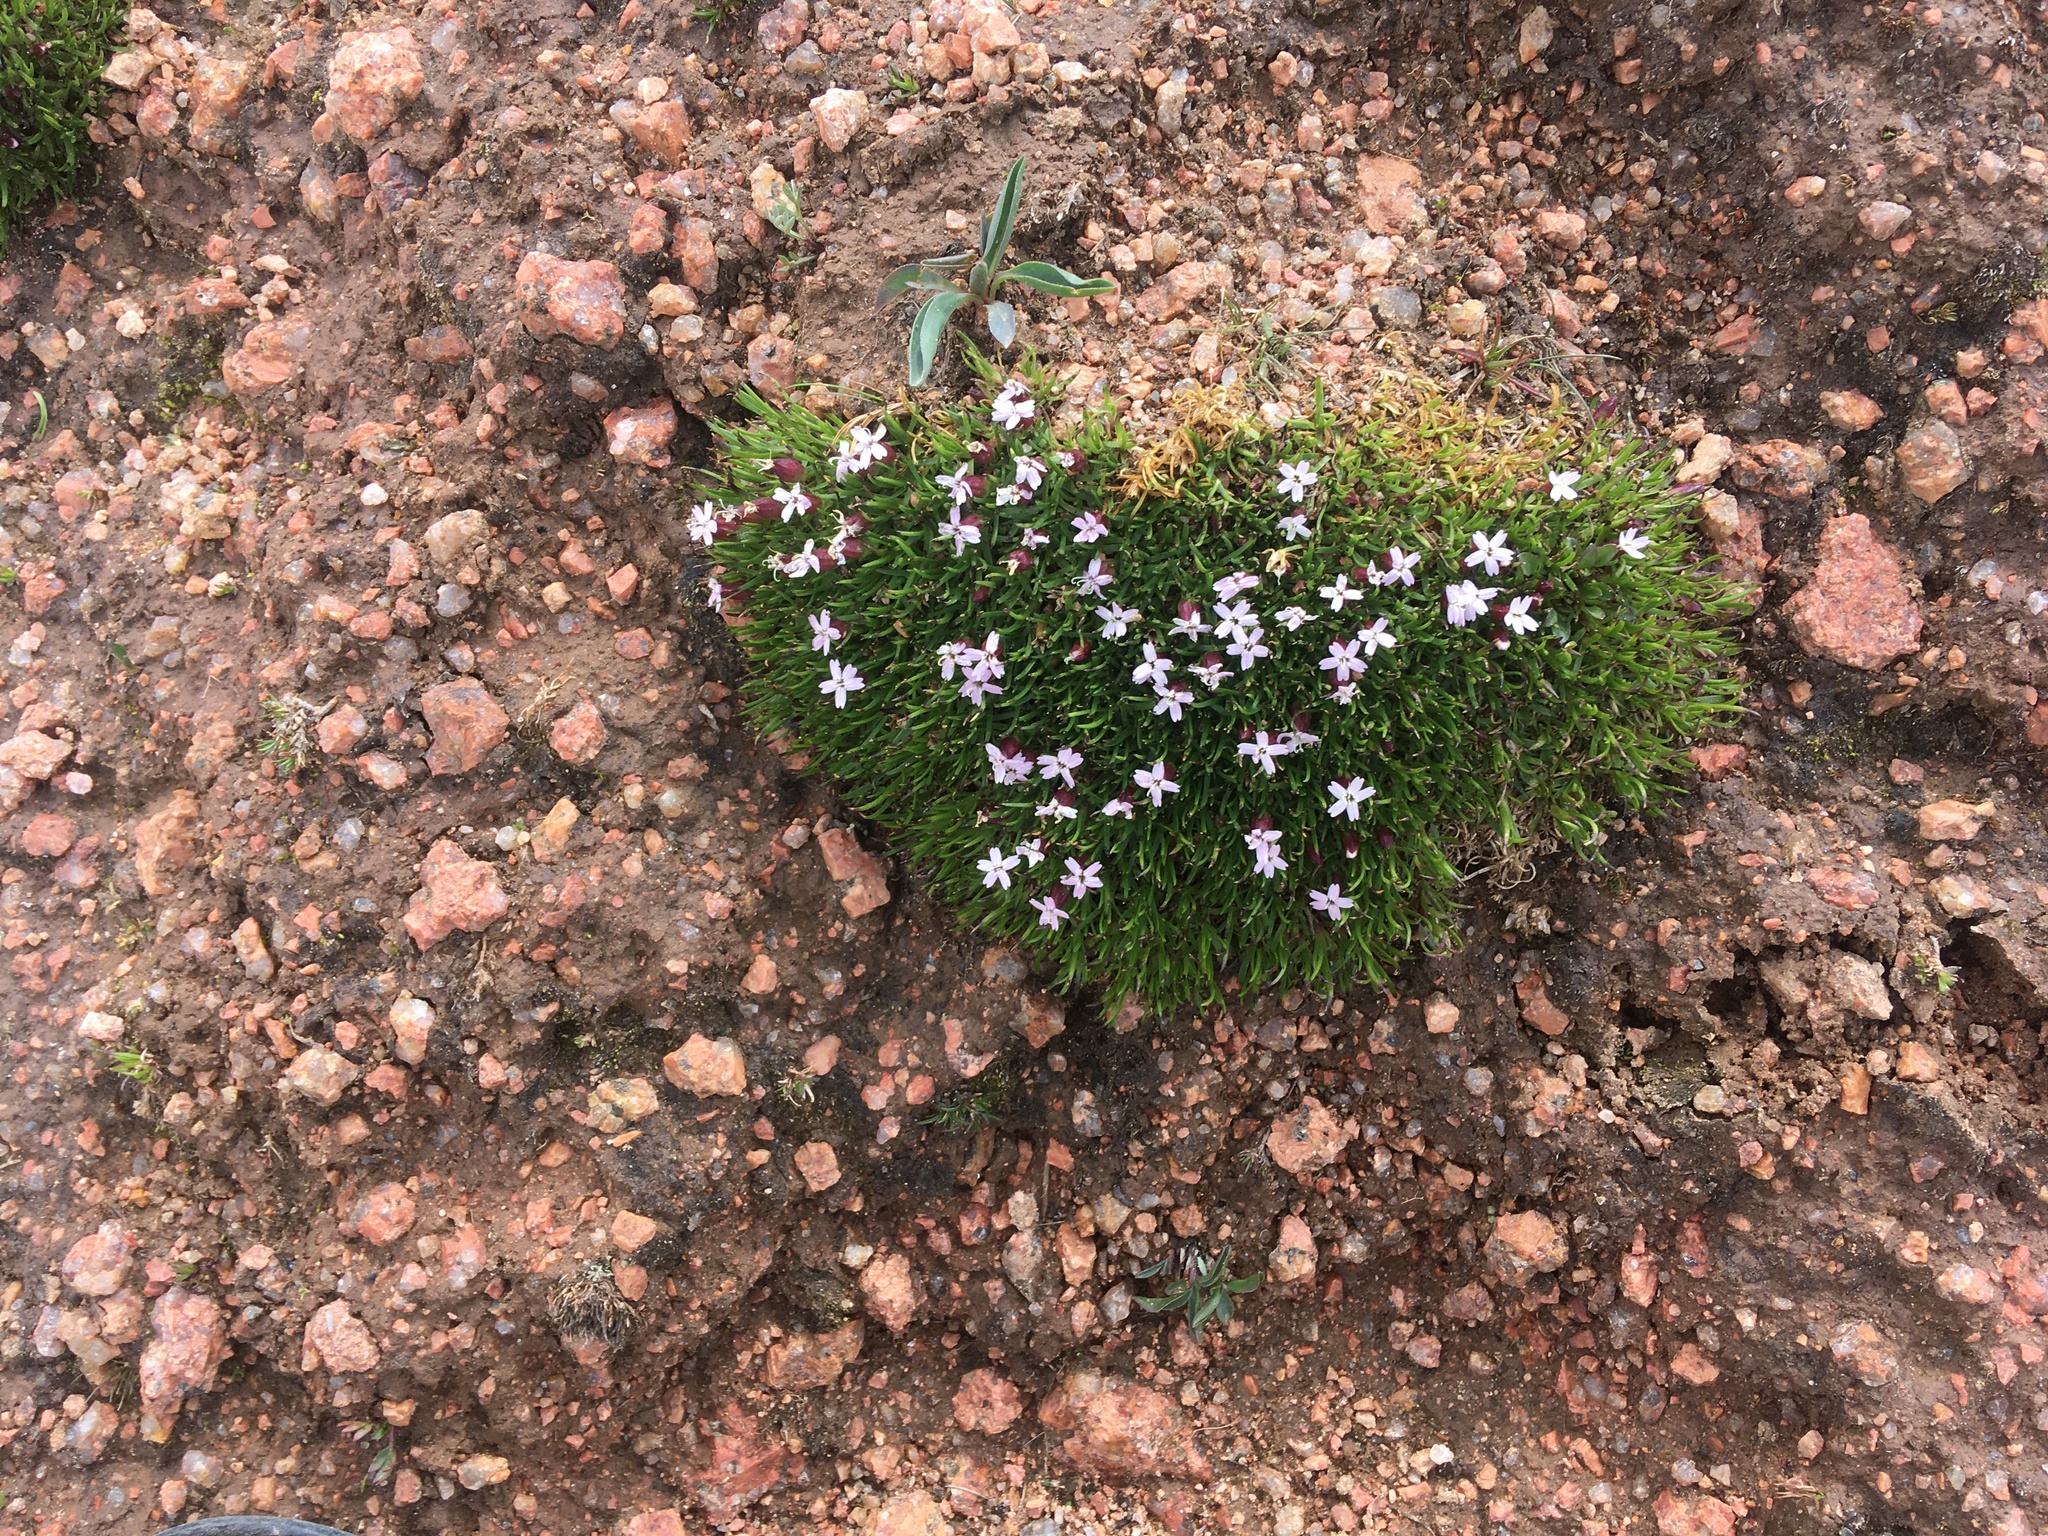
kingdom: Plantae
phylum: Tracheophyta
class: Magnoliopsida
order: Caryophyllales
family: Caryophyllaceae
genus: Silene
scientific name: Silene acaulis
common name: Moss campion
